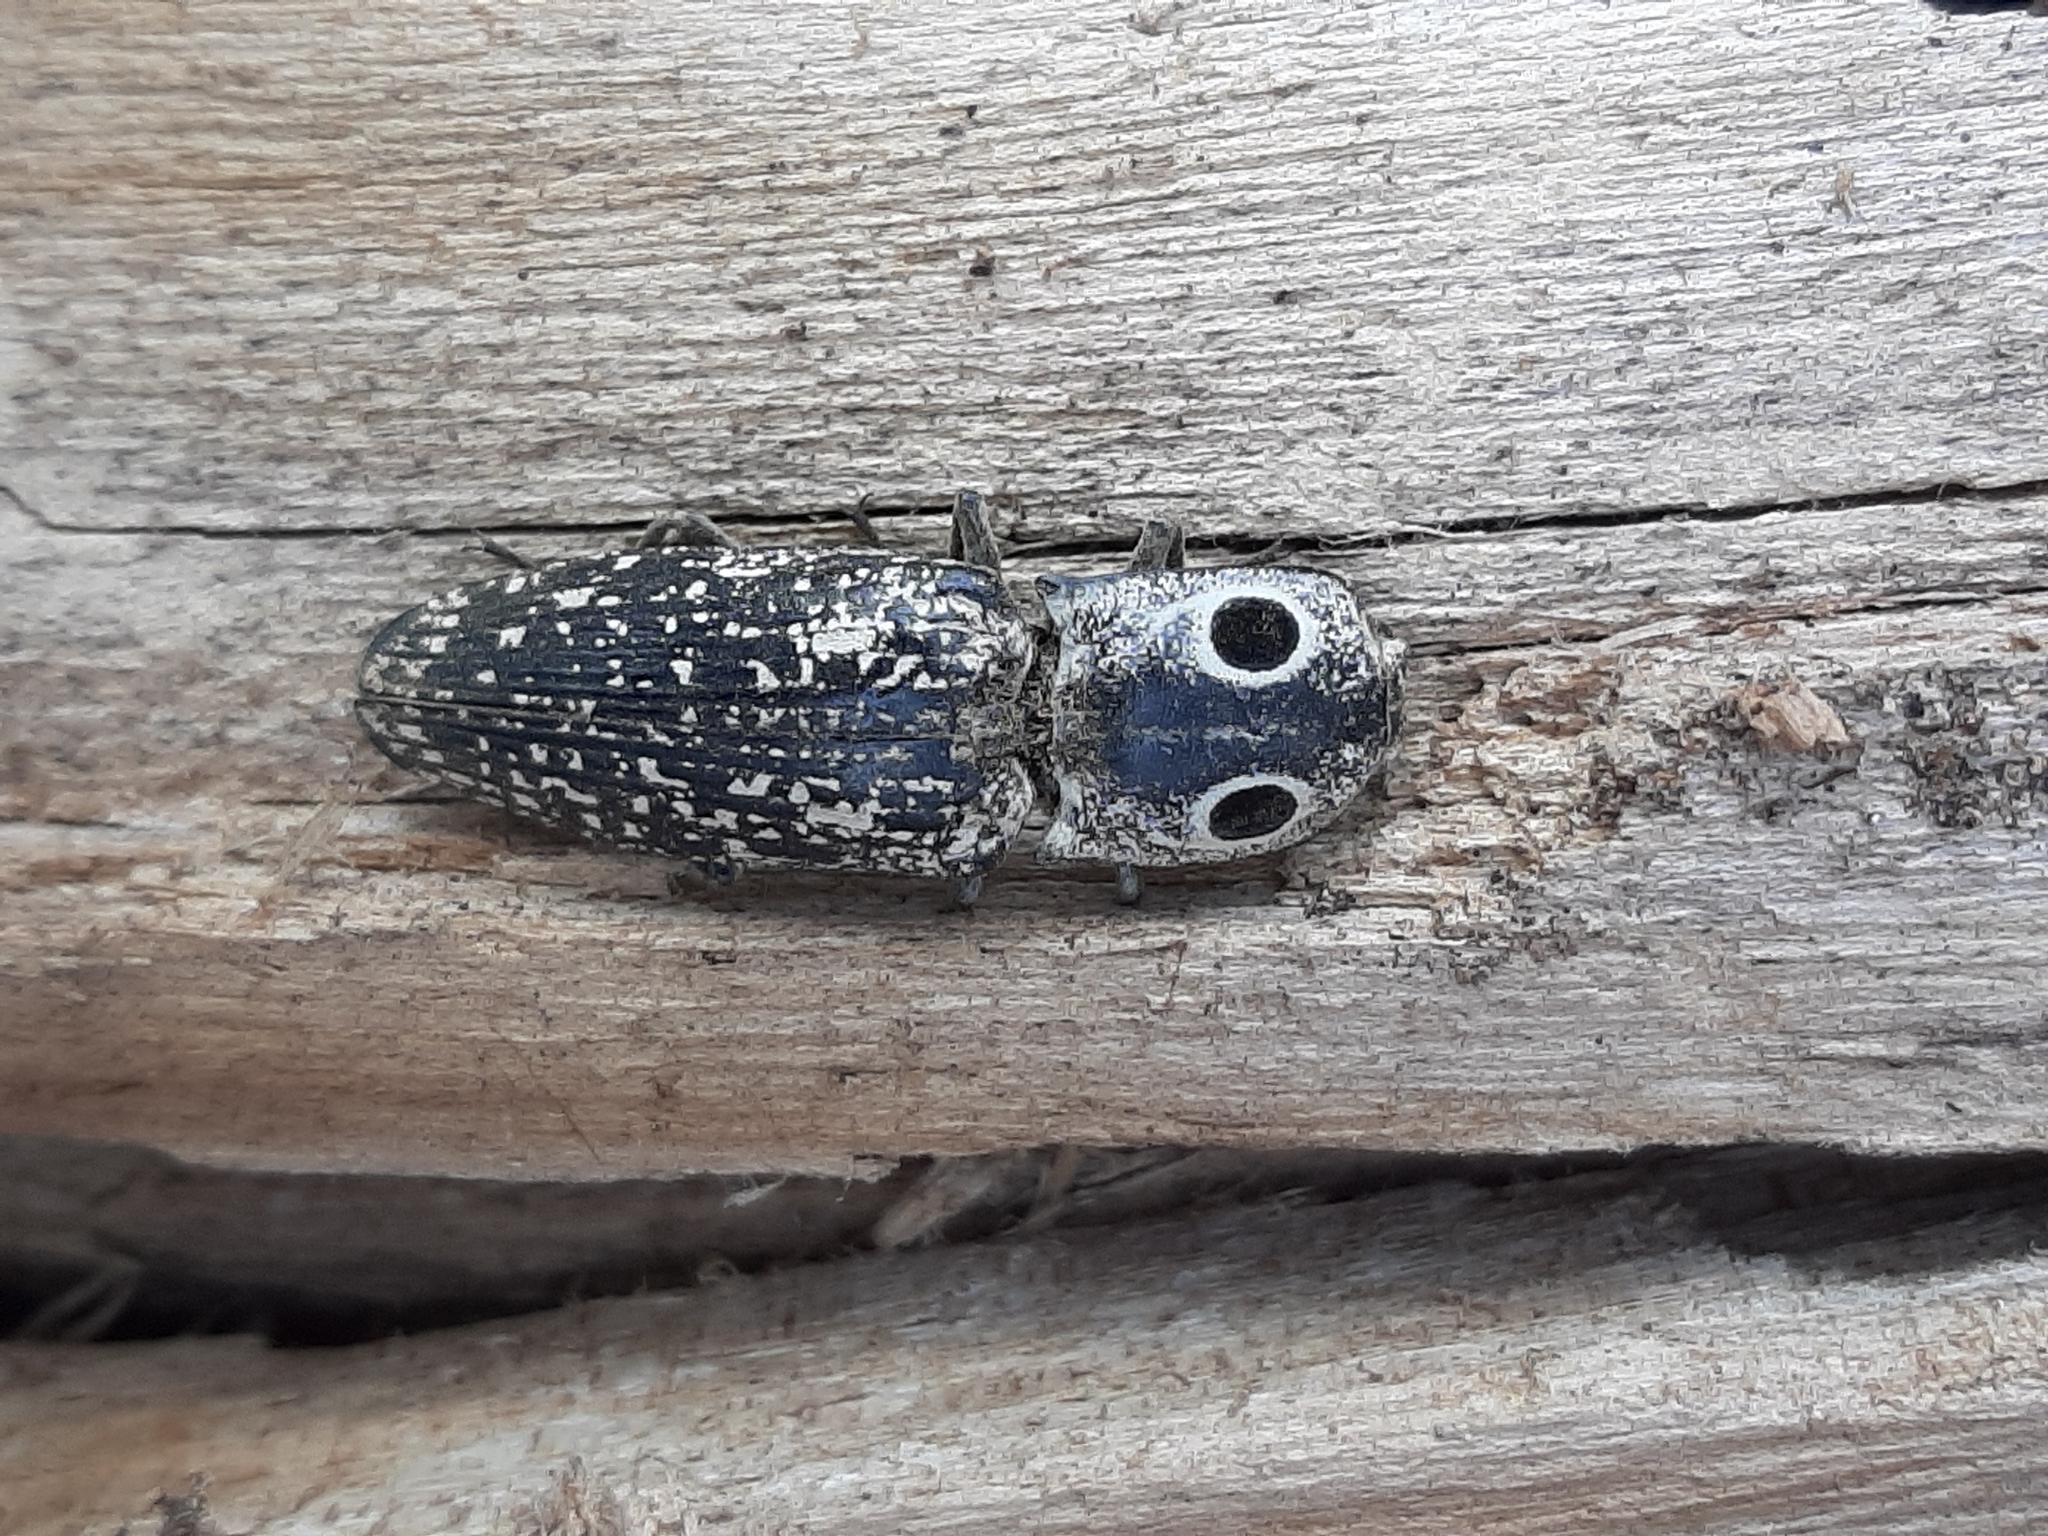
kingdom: Animalia
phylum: Arthropoda
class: Insecta
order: Coleoptera
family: Elateridae
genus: Alaus
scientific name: Alaus oculatus
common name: Eastern eyed click beetle
